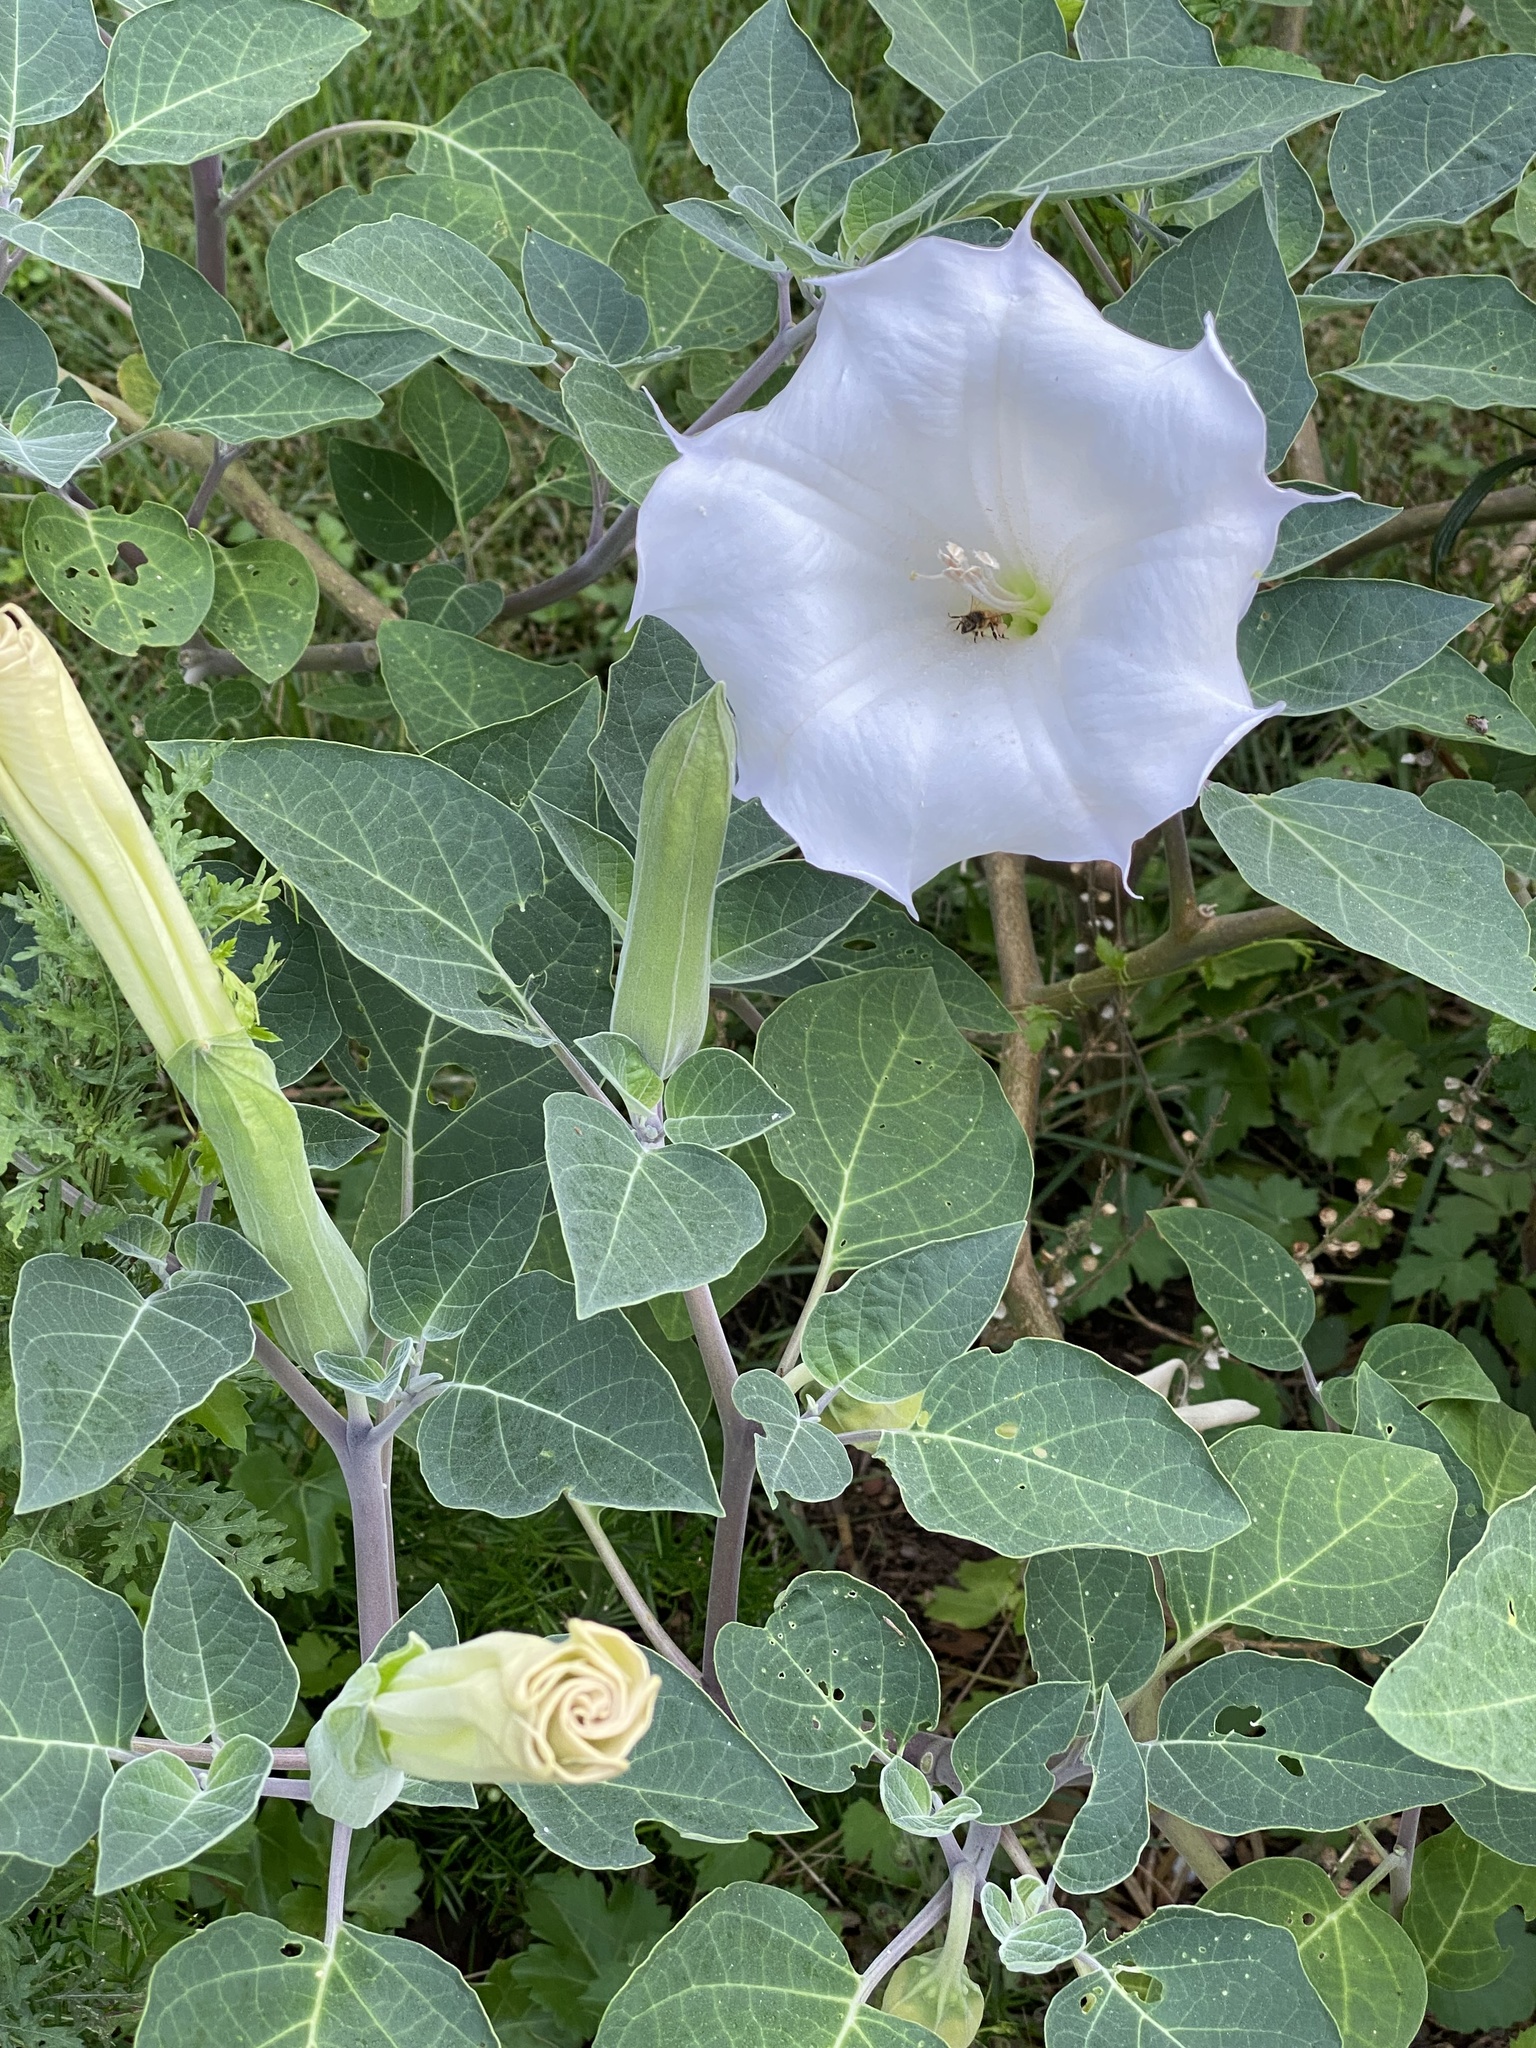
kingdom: Plantae
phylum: Tracheophyta
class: Magnoliopsida
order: Solanales
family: Solanaceae
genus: Datura
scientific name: Datura wrightii
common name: Sacred thorn-apple
